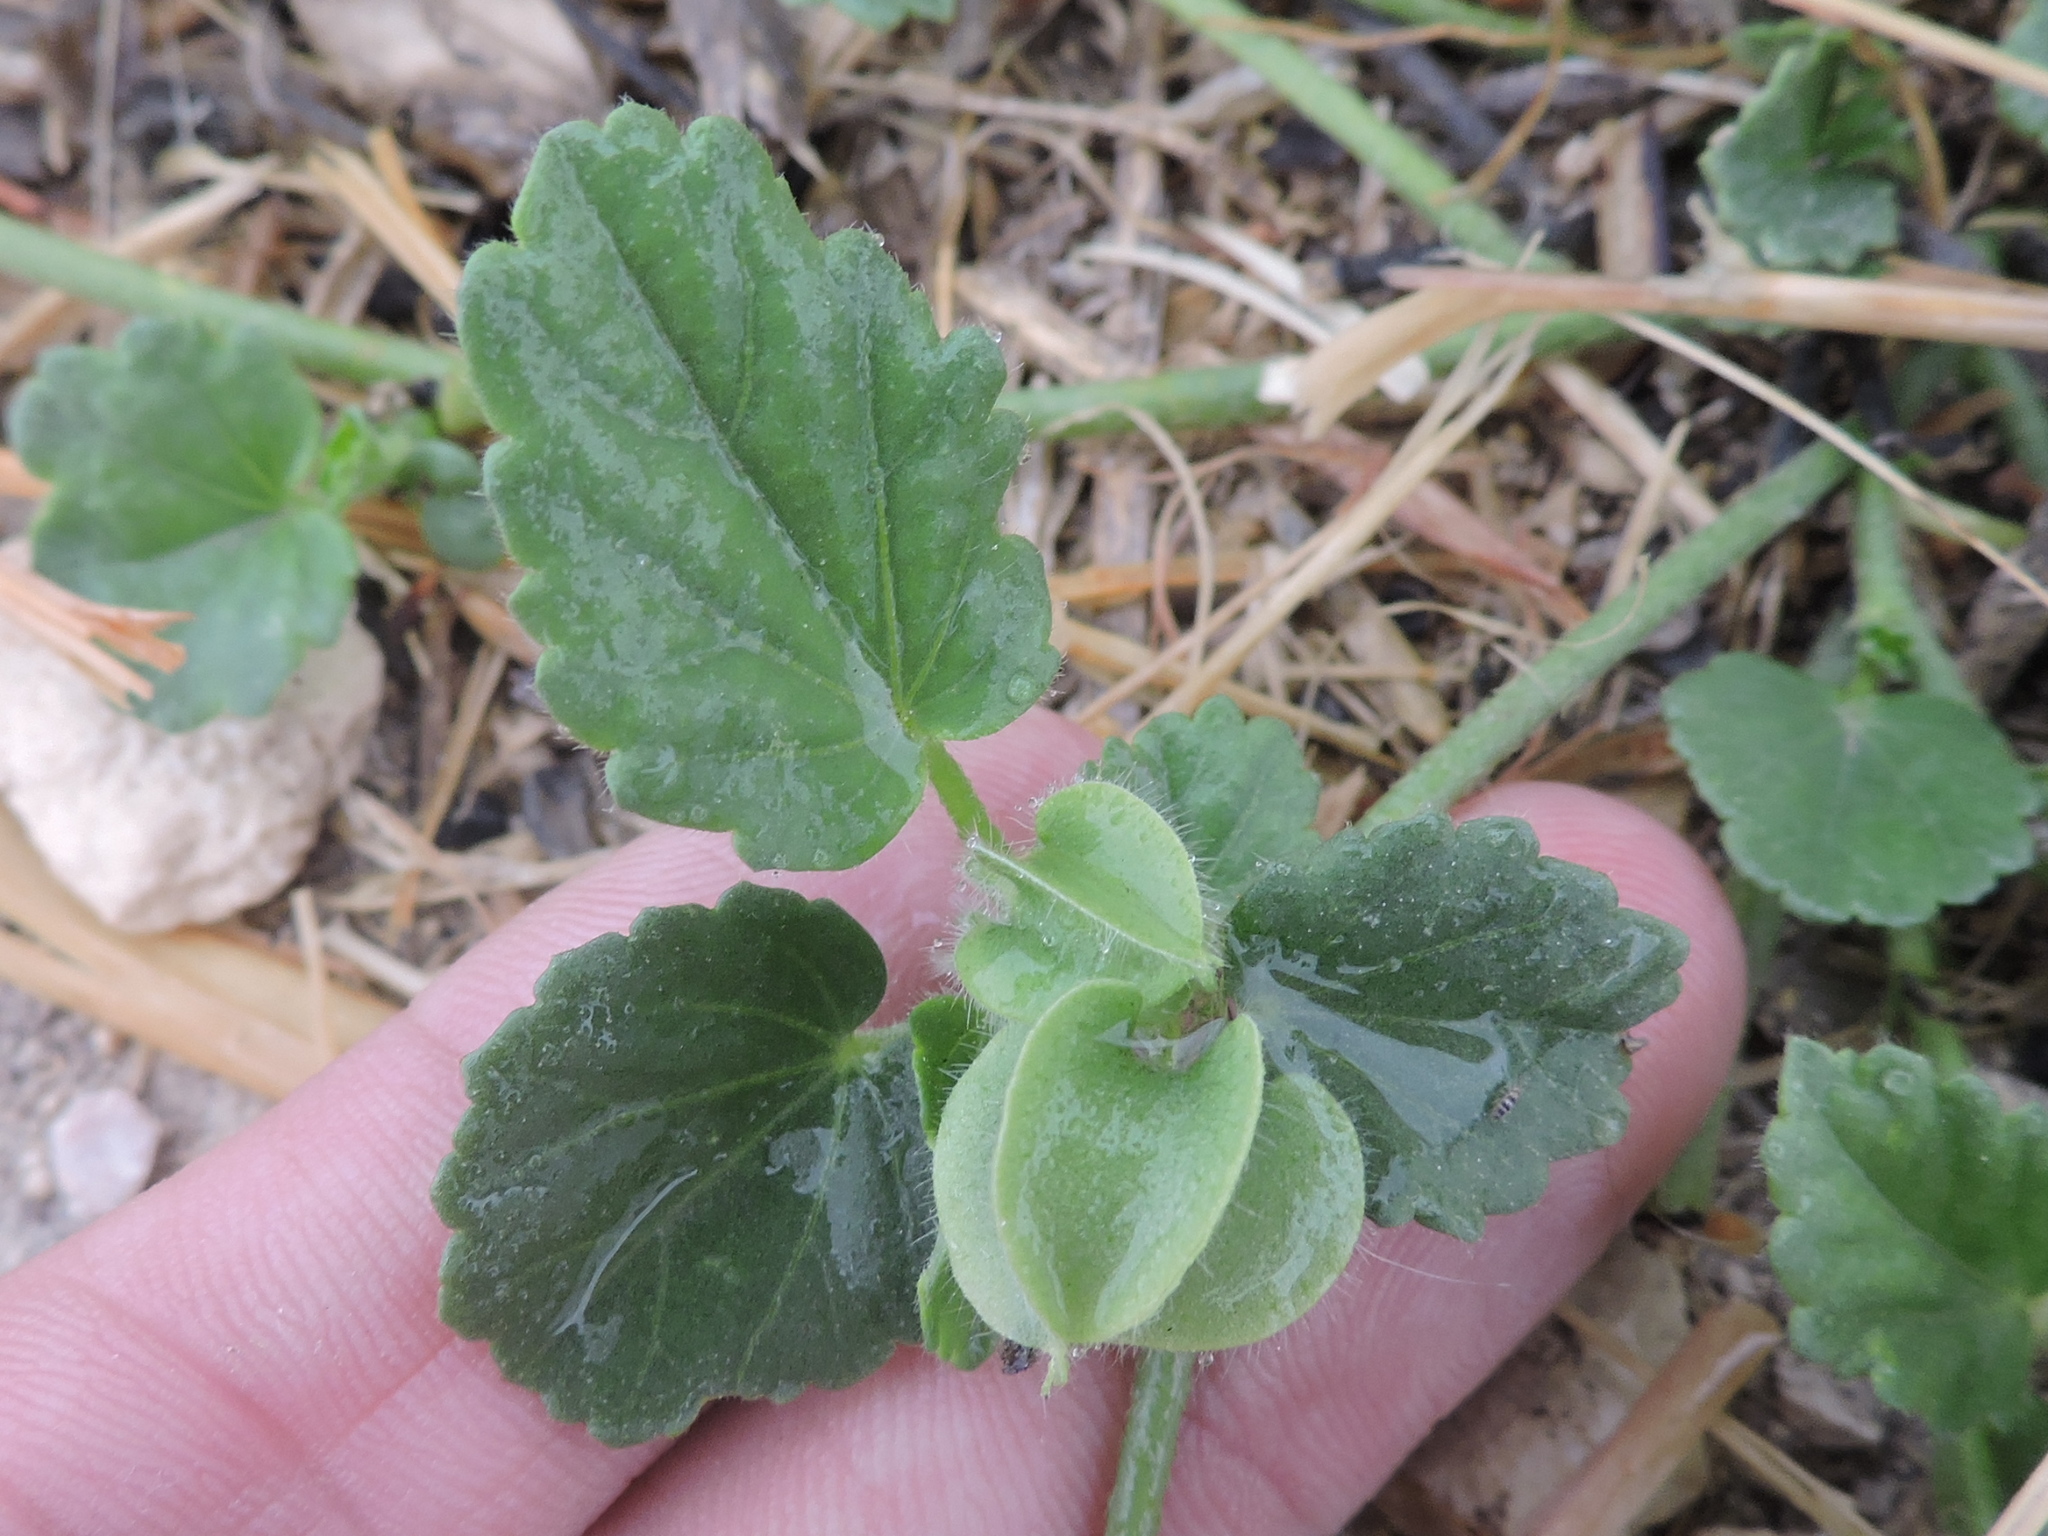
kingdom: Plantae
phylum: Tracheophyta
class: Magnoliopsida
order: Malvales
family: Malvaceae
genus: Rhynchosida
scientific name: Rhynchosida physocalyx
